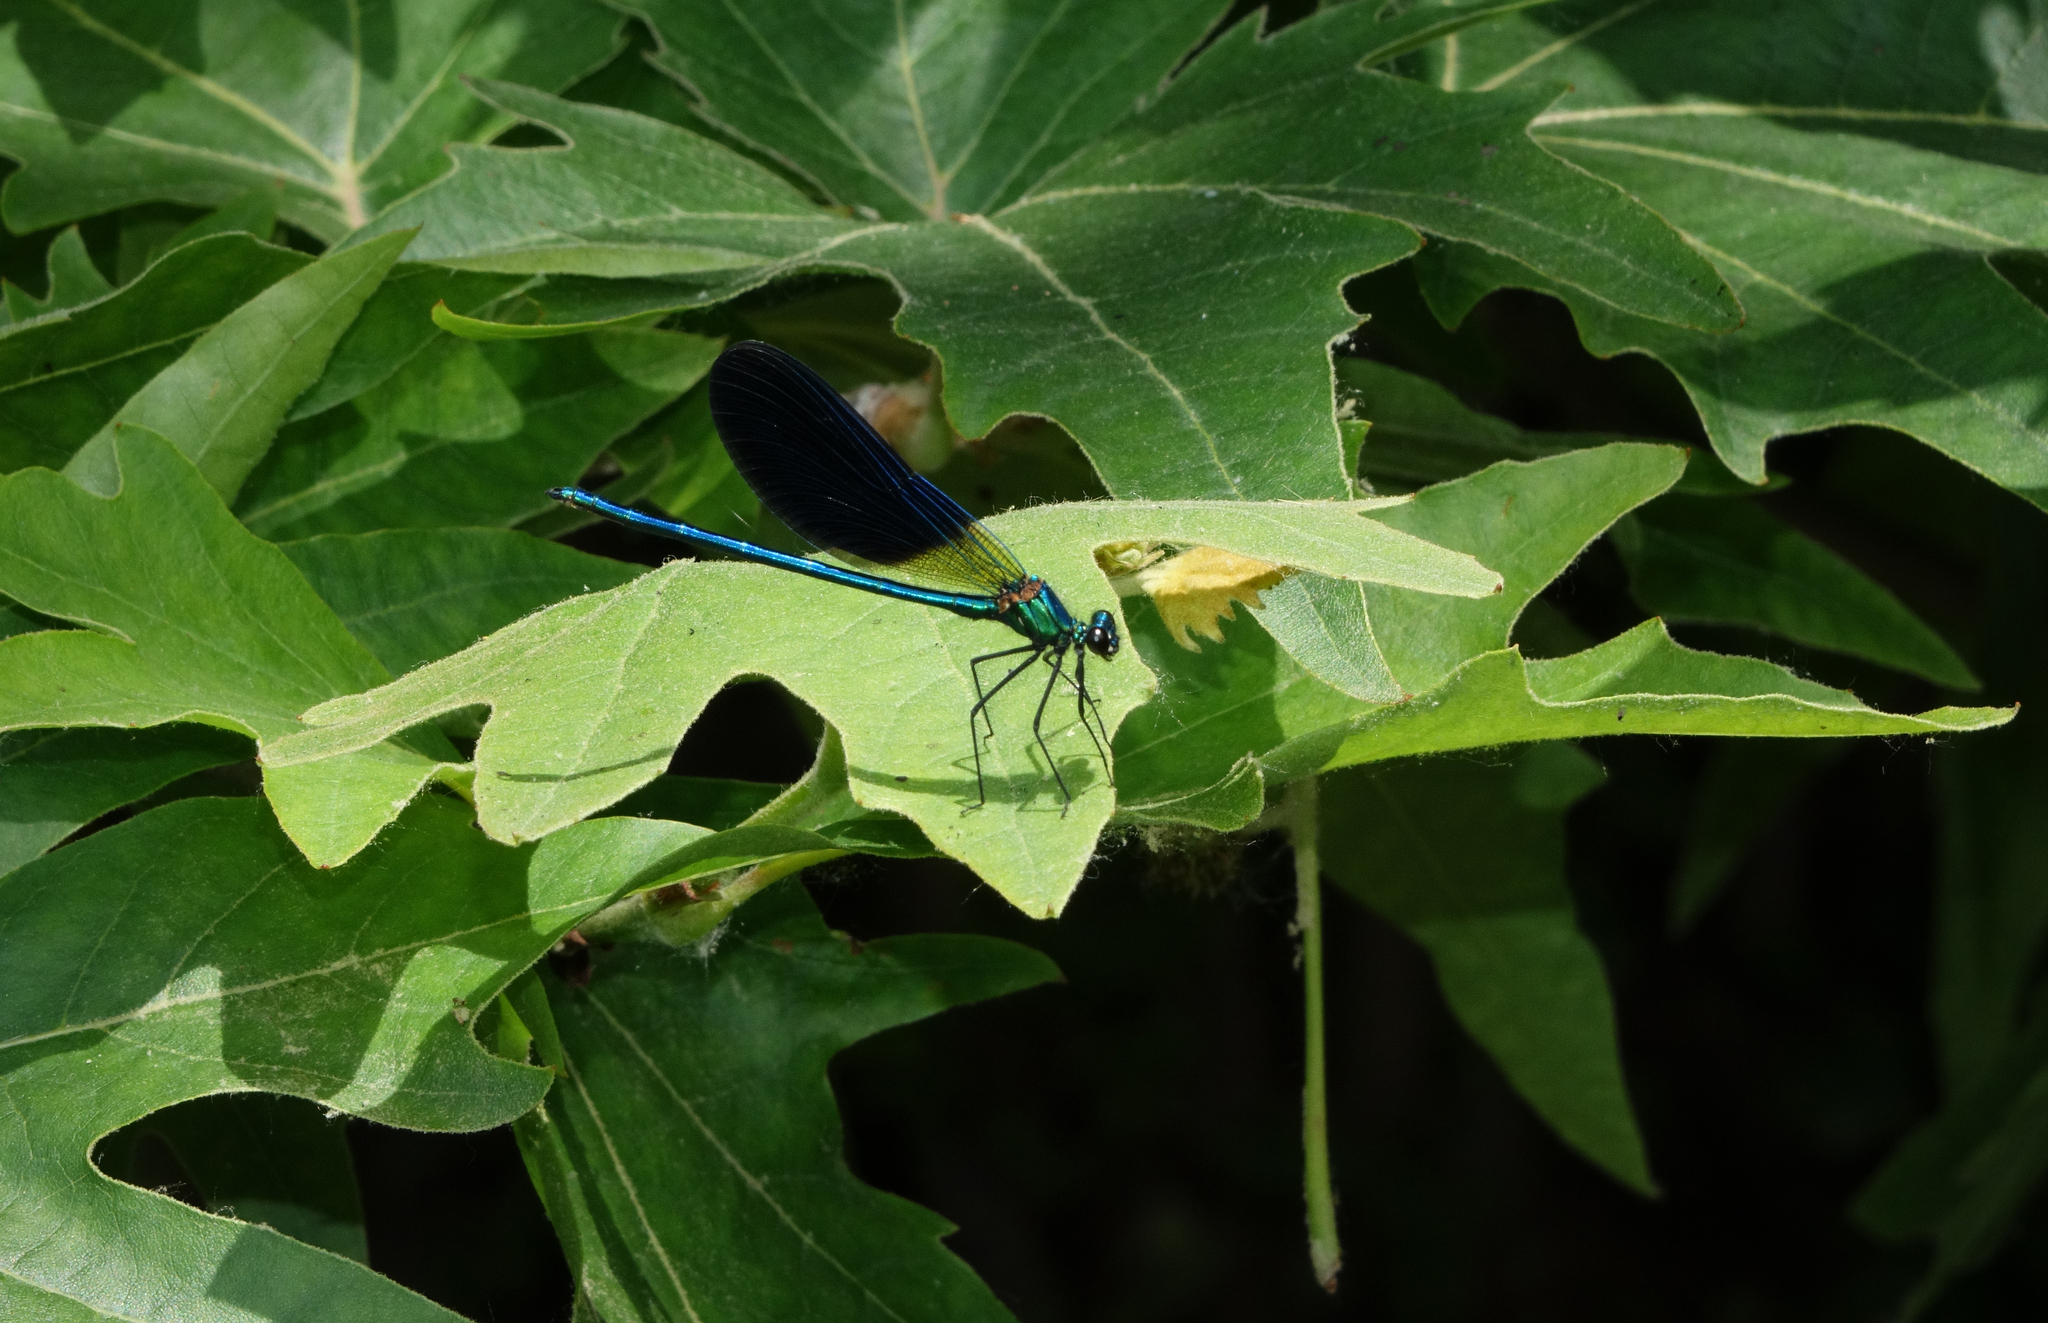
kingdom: Animalia
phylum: Arthropoda
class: Insecta
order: Odonata
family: Calopterygidae
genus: Calopteryx
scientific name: Calopteryx splendens
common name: Banded demoiselle
